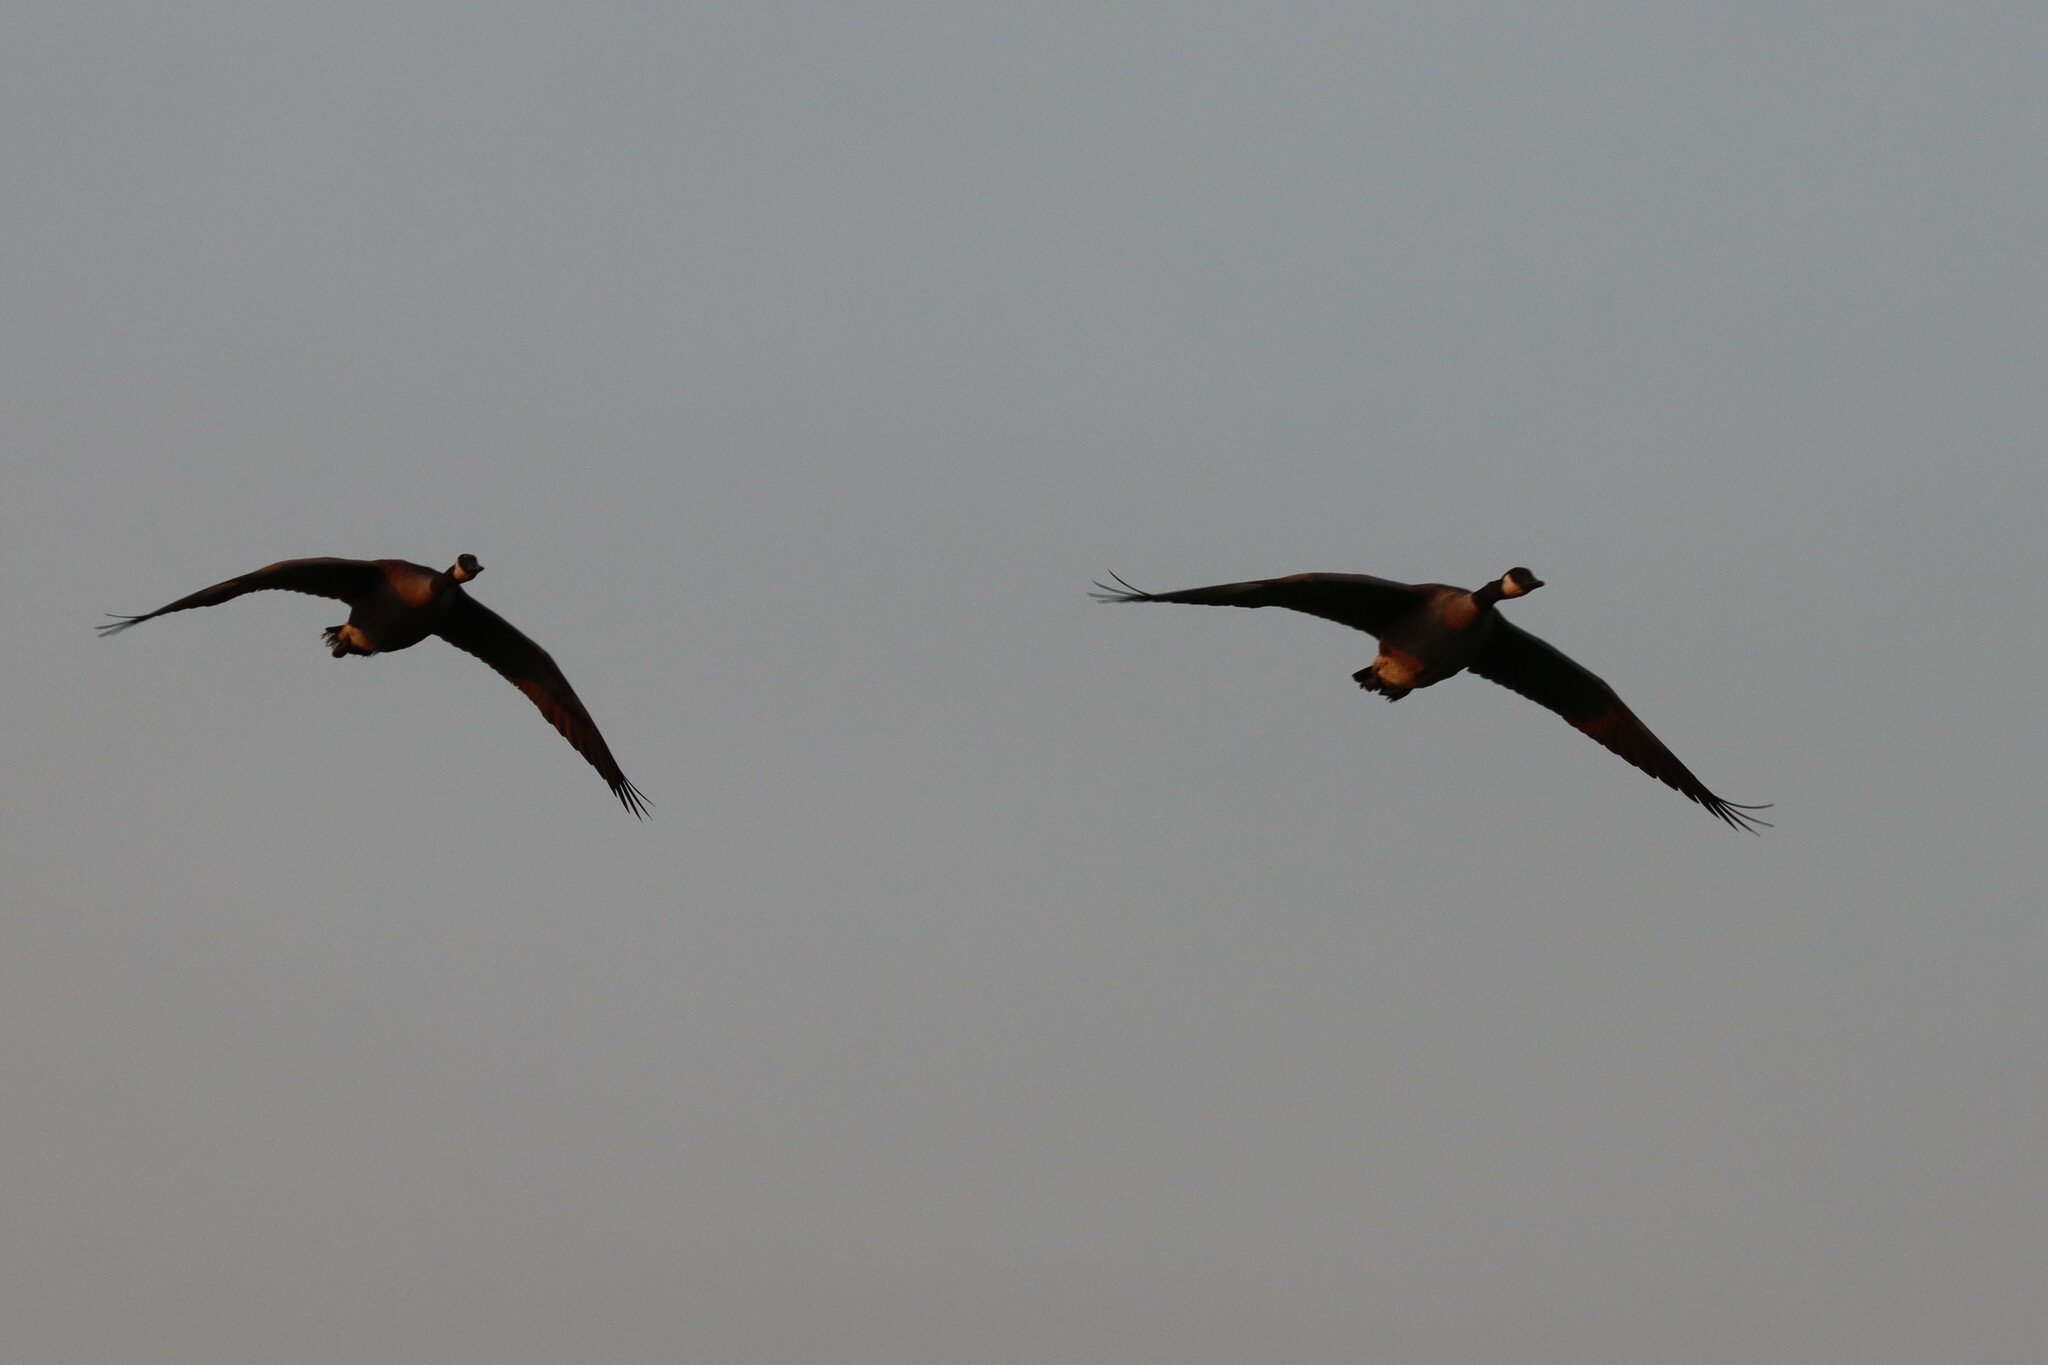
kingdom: Animalia
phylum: Chordata
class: Aves
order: Anseriformes
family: Anatidae
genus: Branta
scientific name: Branta canadensis
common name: Canada goose
